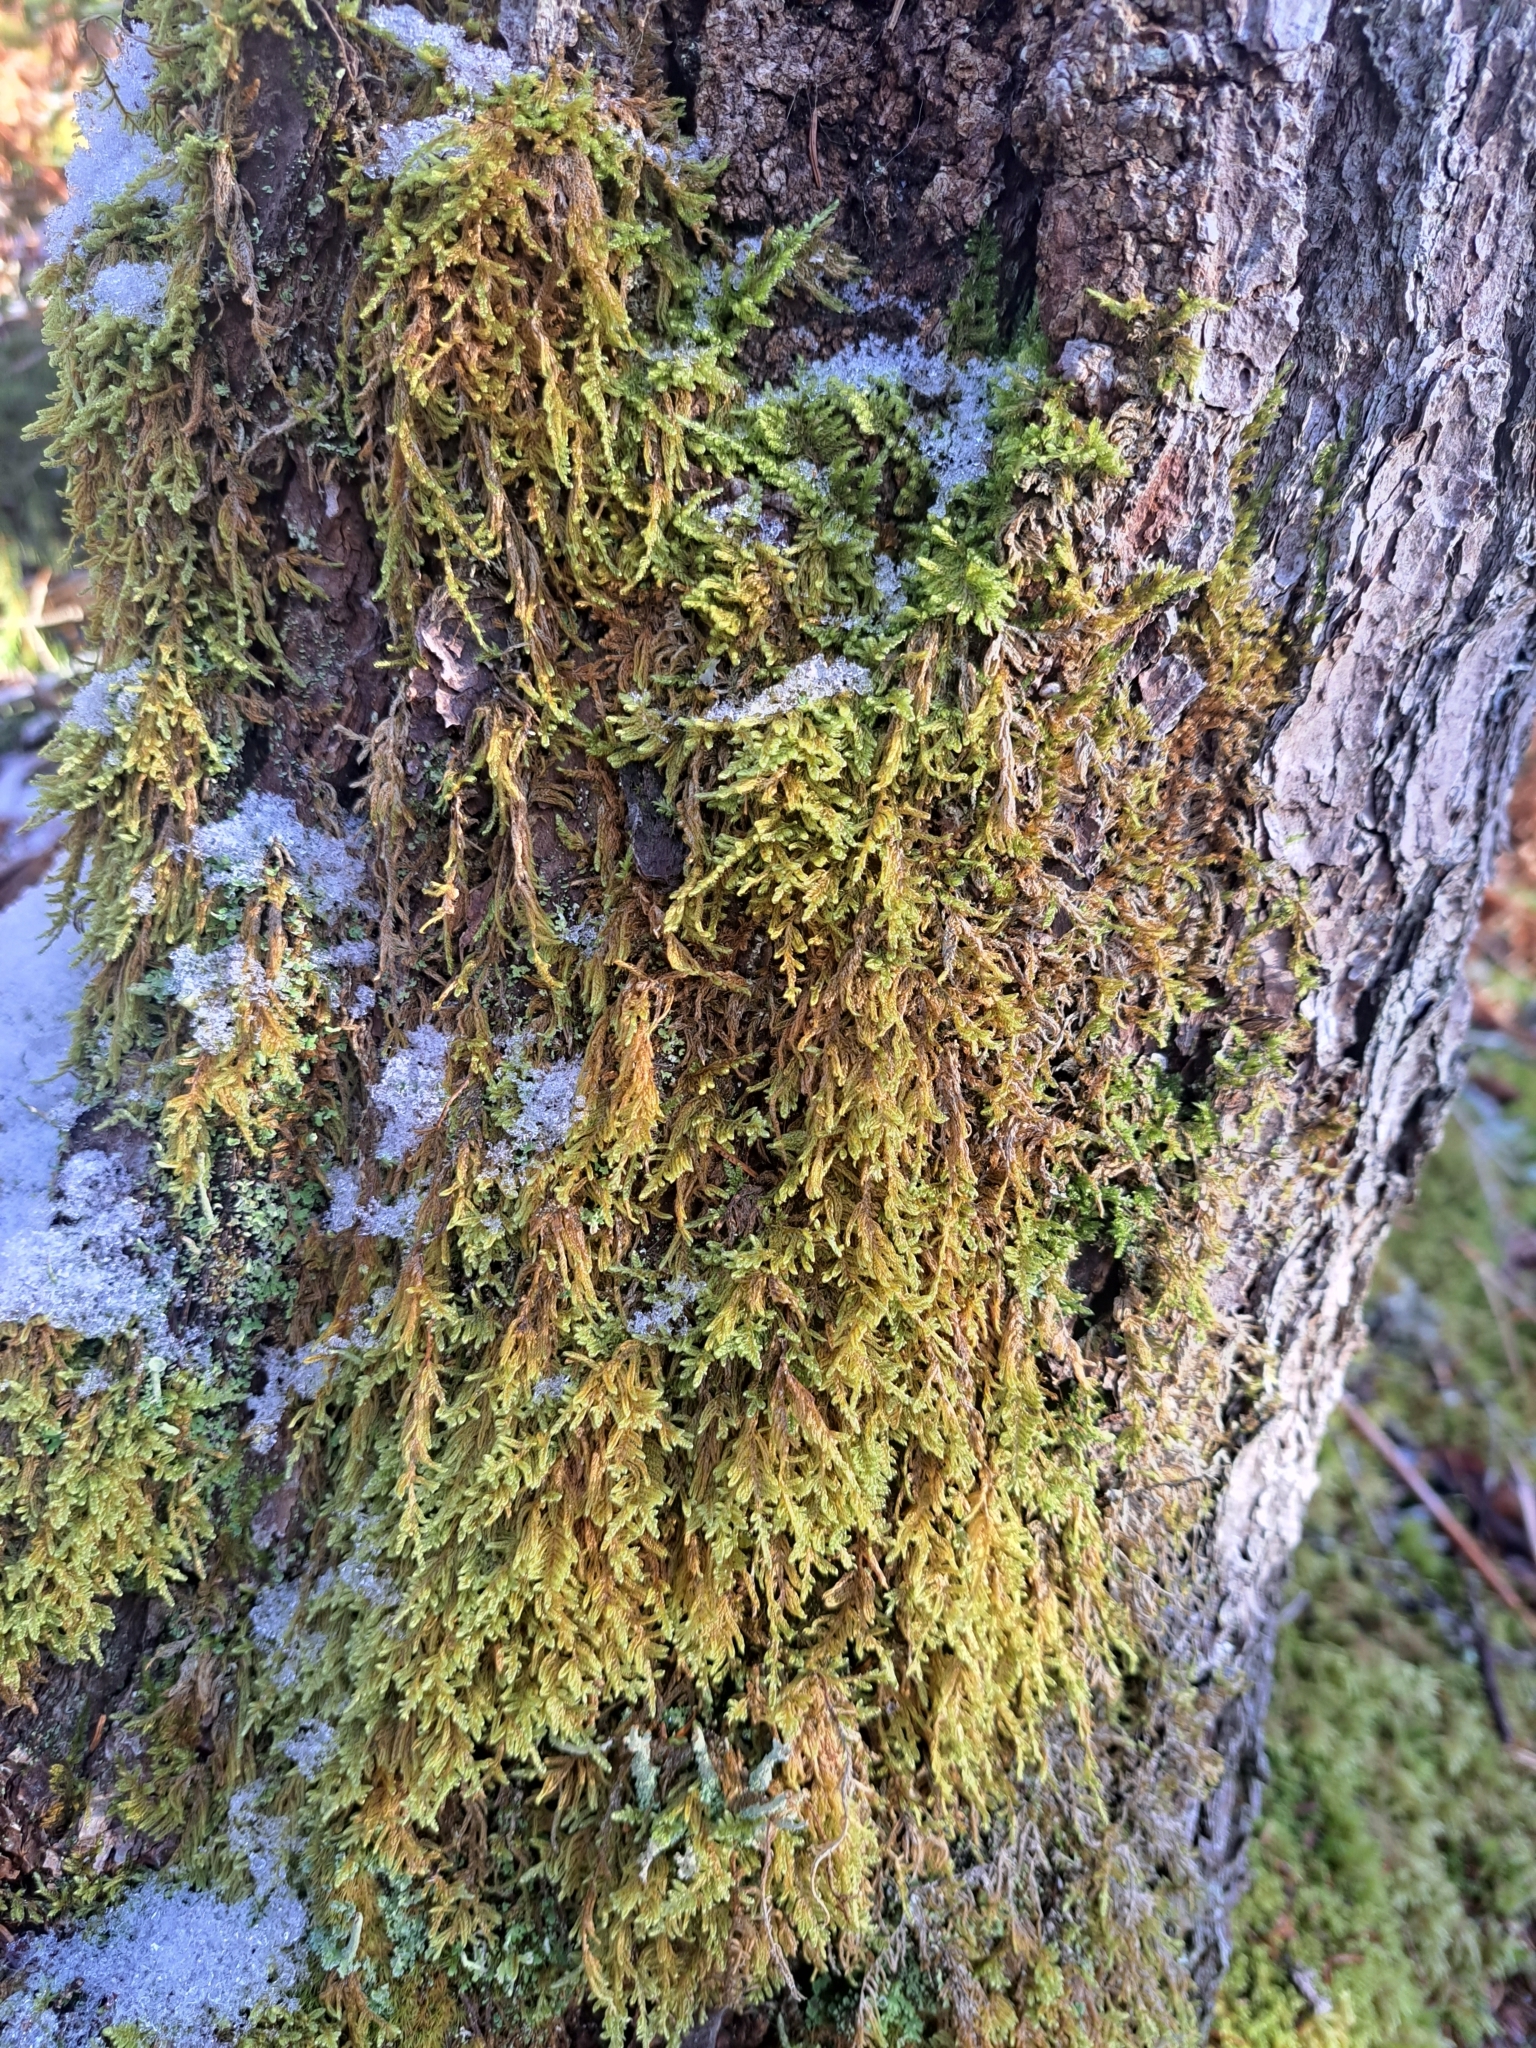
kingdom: Plantae
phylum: Bryophyta
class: Bryopsida
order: Hypnales
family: Callicladiaceae
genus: Callicladium
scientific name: Callicladium imponens
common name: Brocade moss
